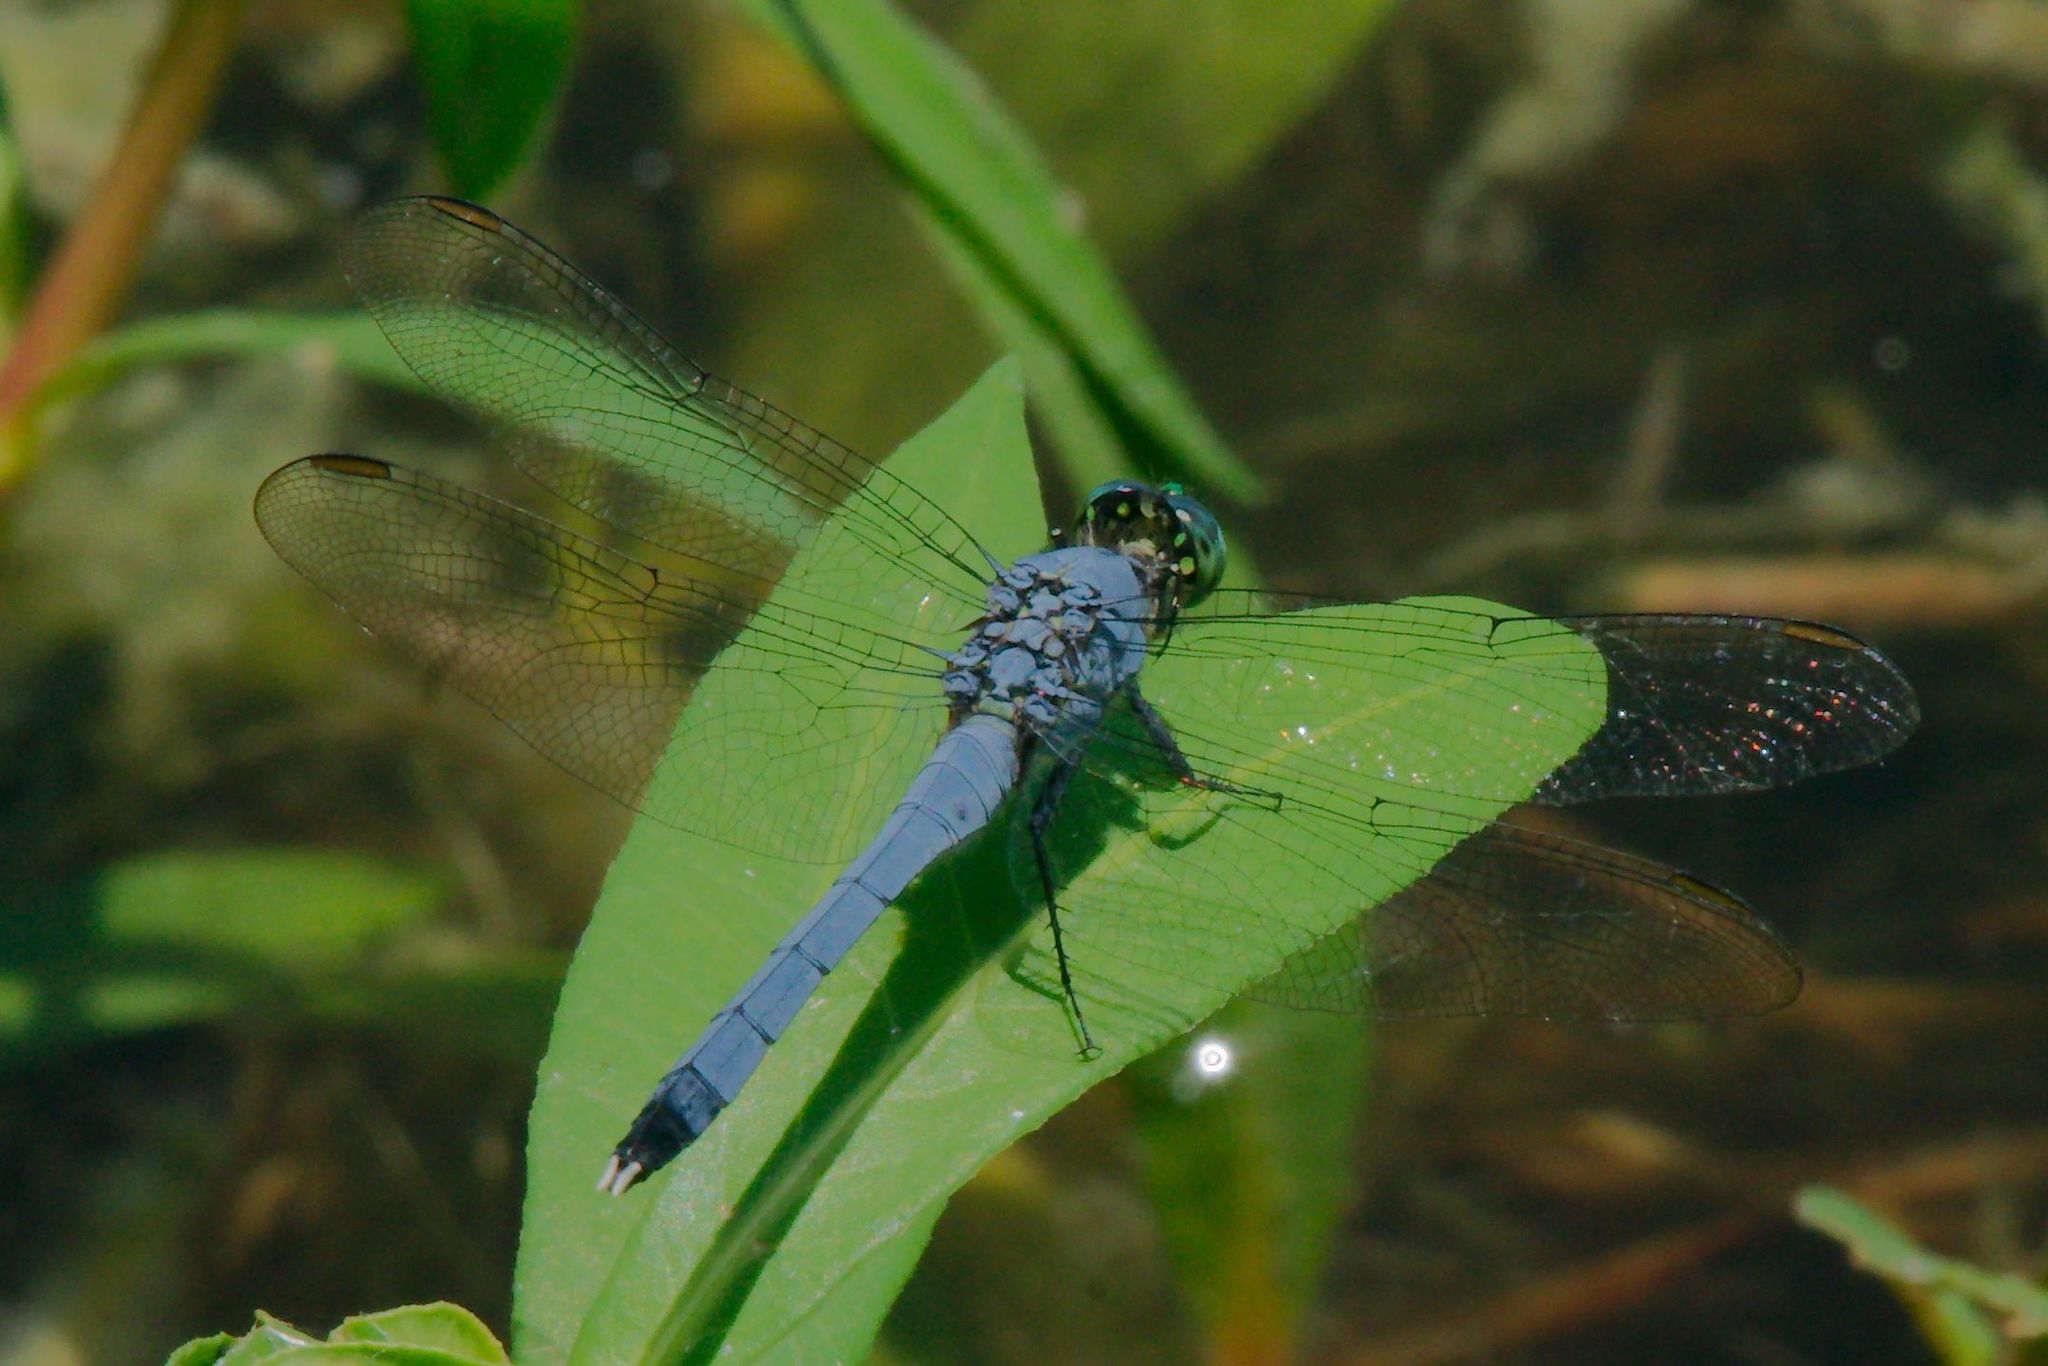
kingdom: Animalia
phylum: Arthropoda
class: Insecta
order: Odonata
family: Libellulidae
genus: Erythemis
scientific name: Erythemis simplicicollis
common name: Eastern pondhawk
